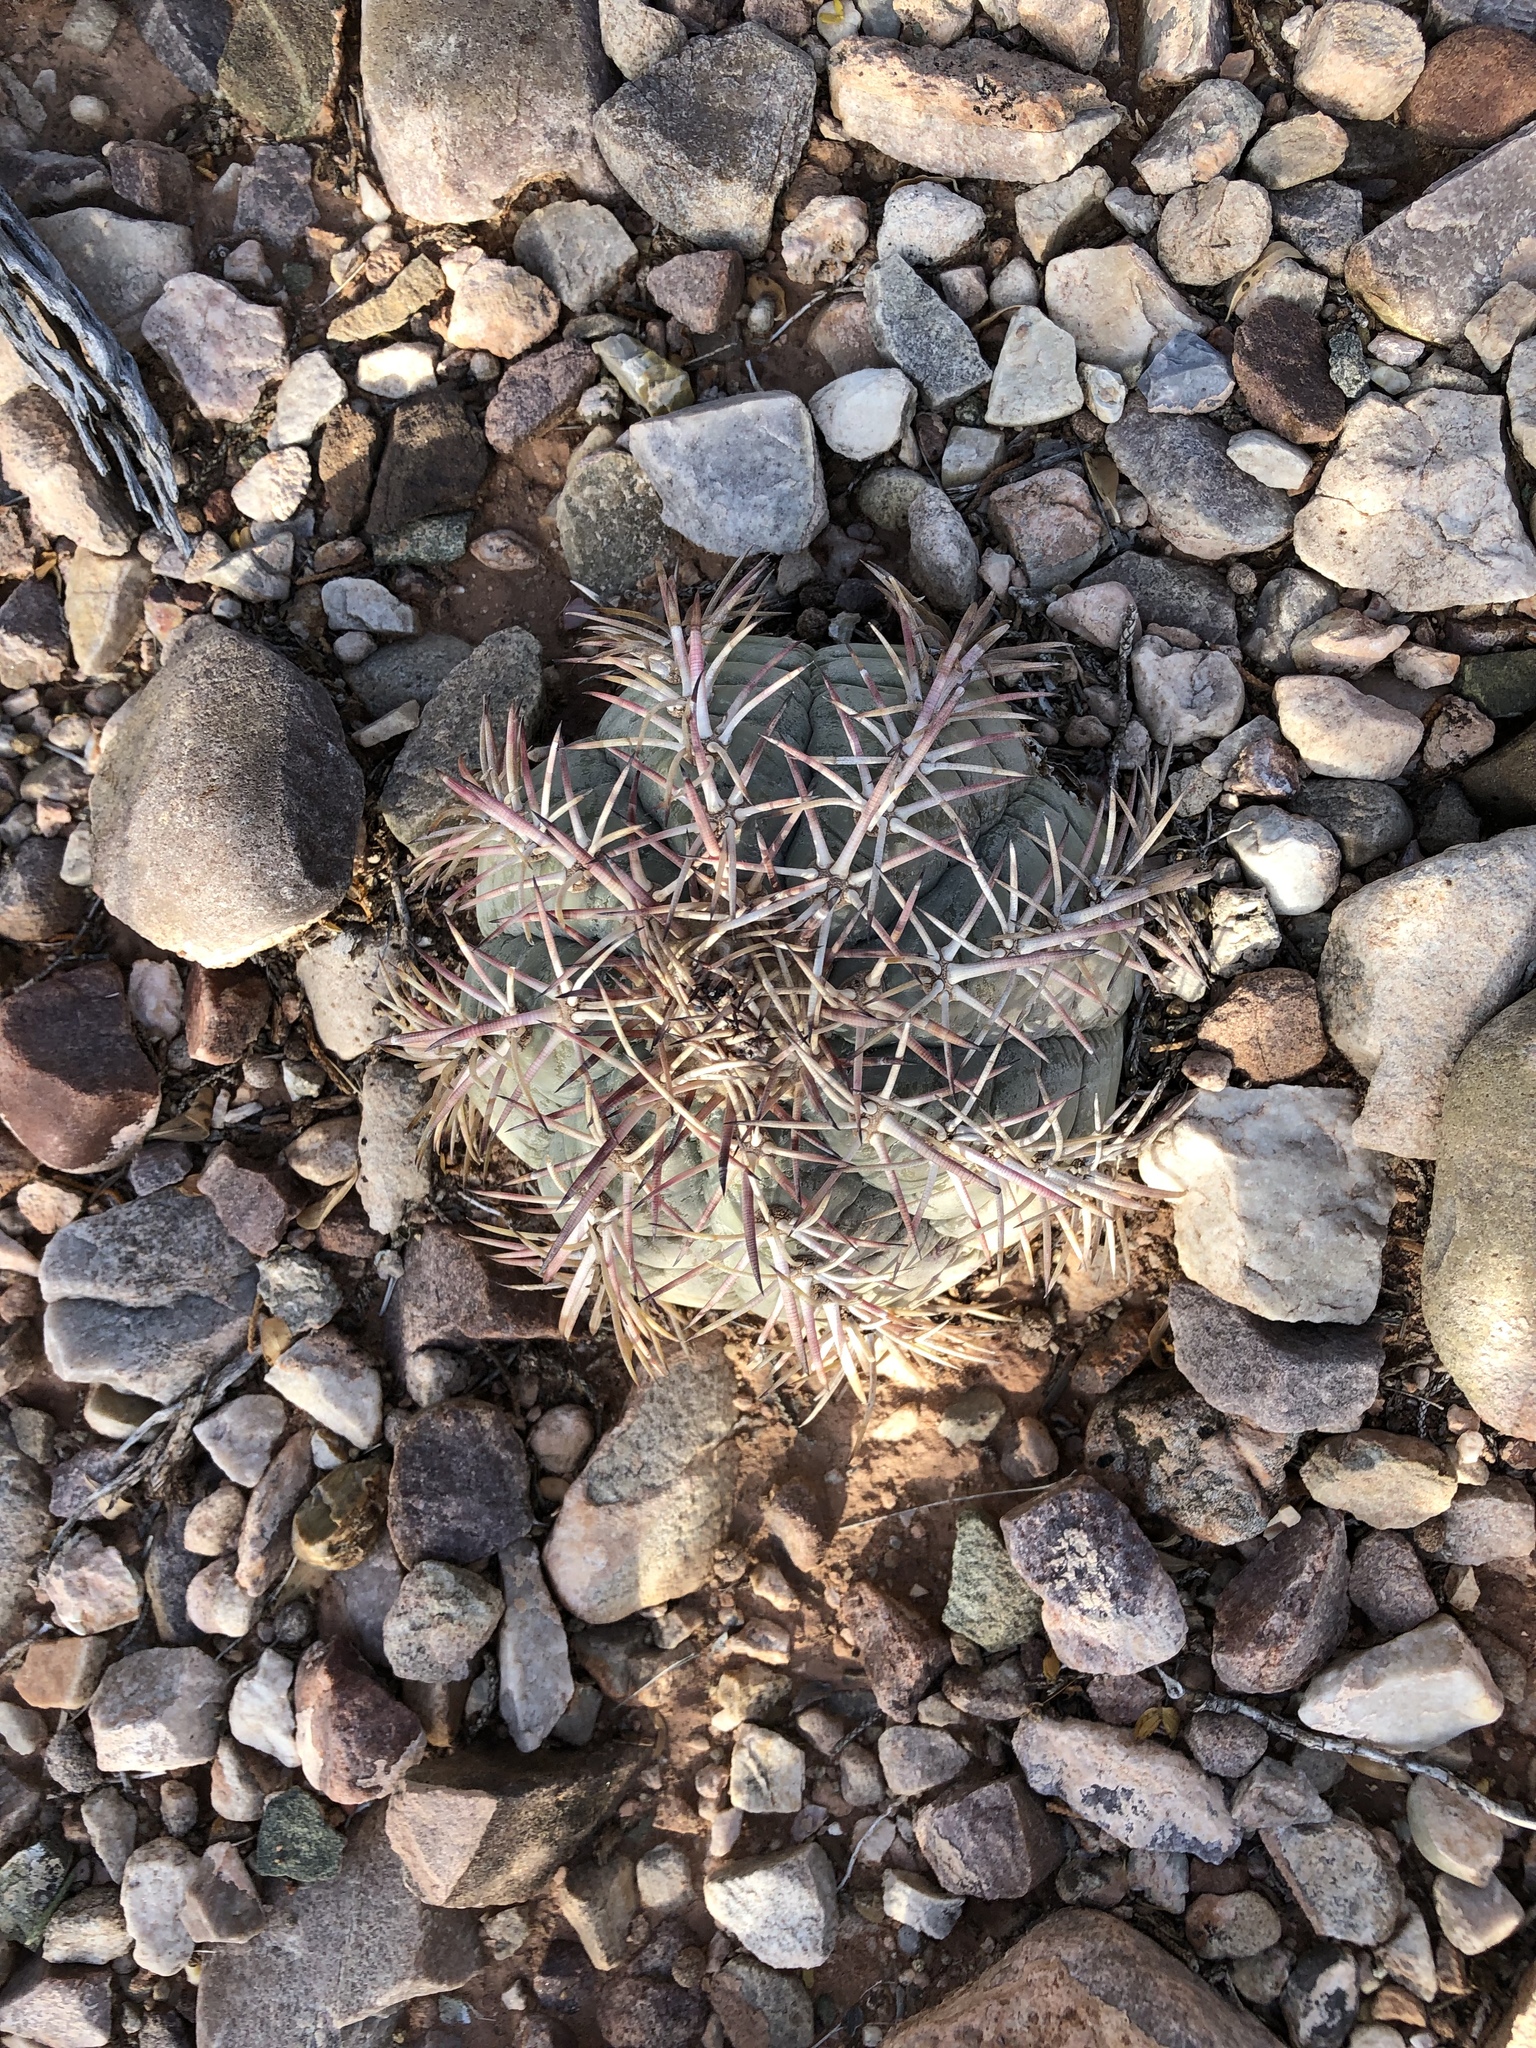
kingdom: Plantae
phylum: Tracheophyta
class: Magnoliopsida
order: Caryophyllales
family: Cactaceae
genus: Echinocactus
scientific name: Echinocactus horizonthalonius
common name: Devilshead
